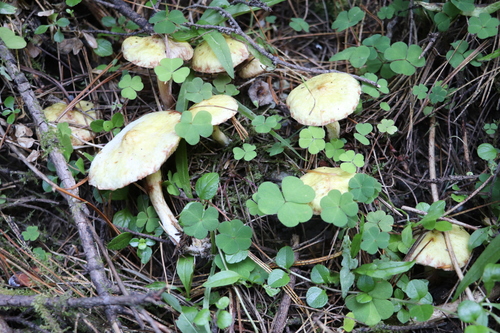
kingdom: Fungi
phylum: Basidiomycota
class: Agaricomycetes
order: Boletales
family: Suillaceae
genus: Suillus
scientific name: Suillus americanus
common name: Chicken fat mushroom
